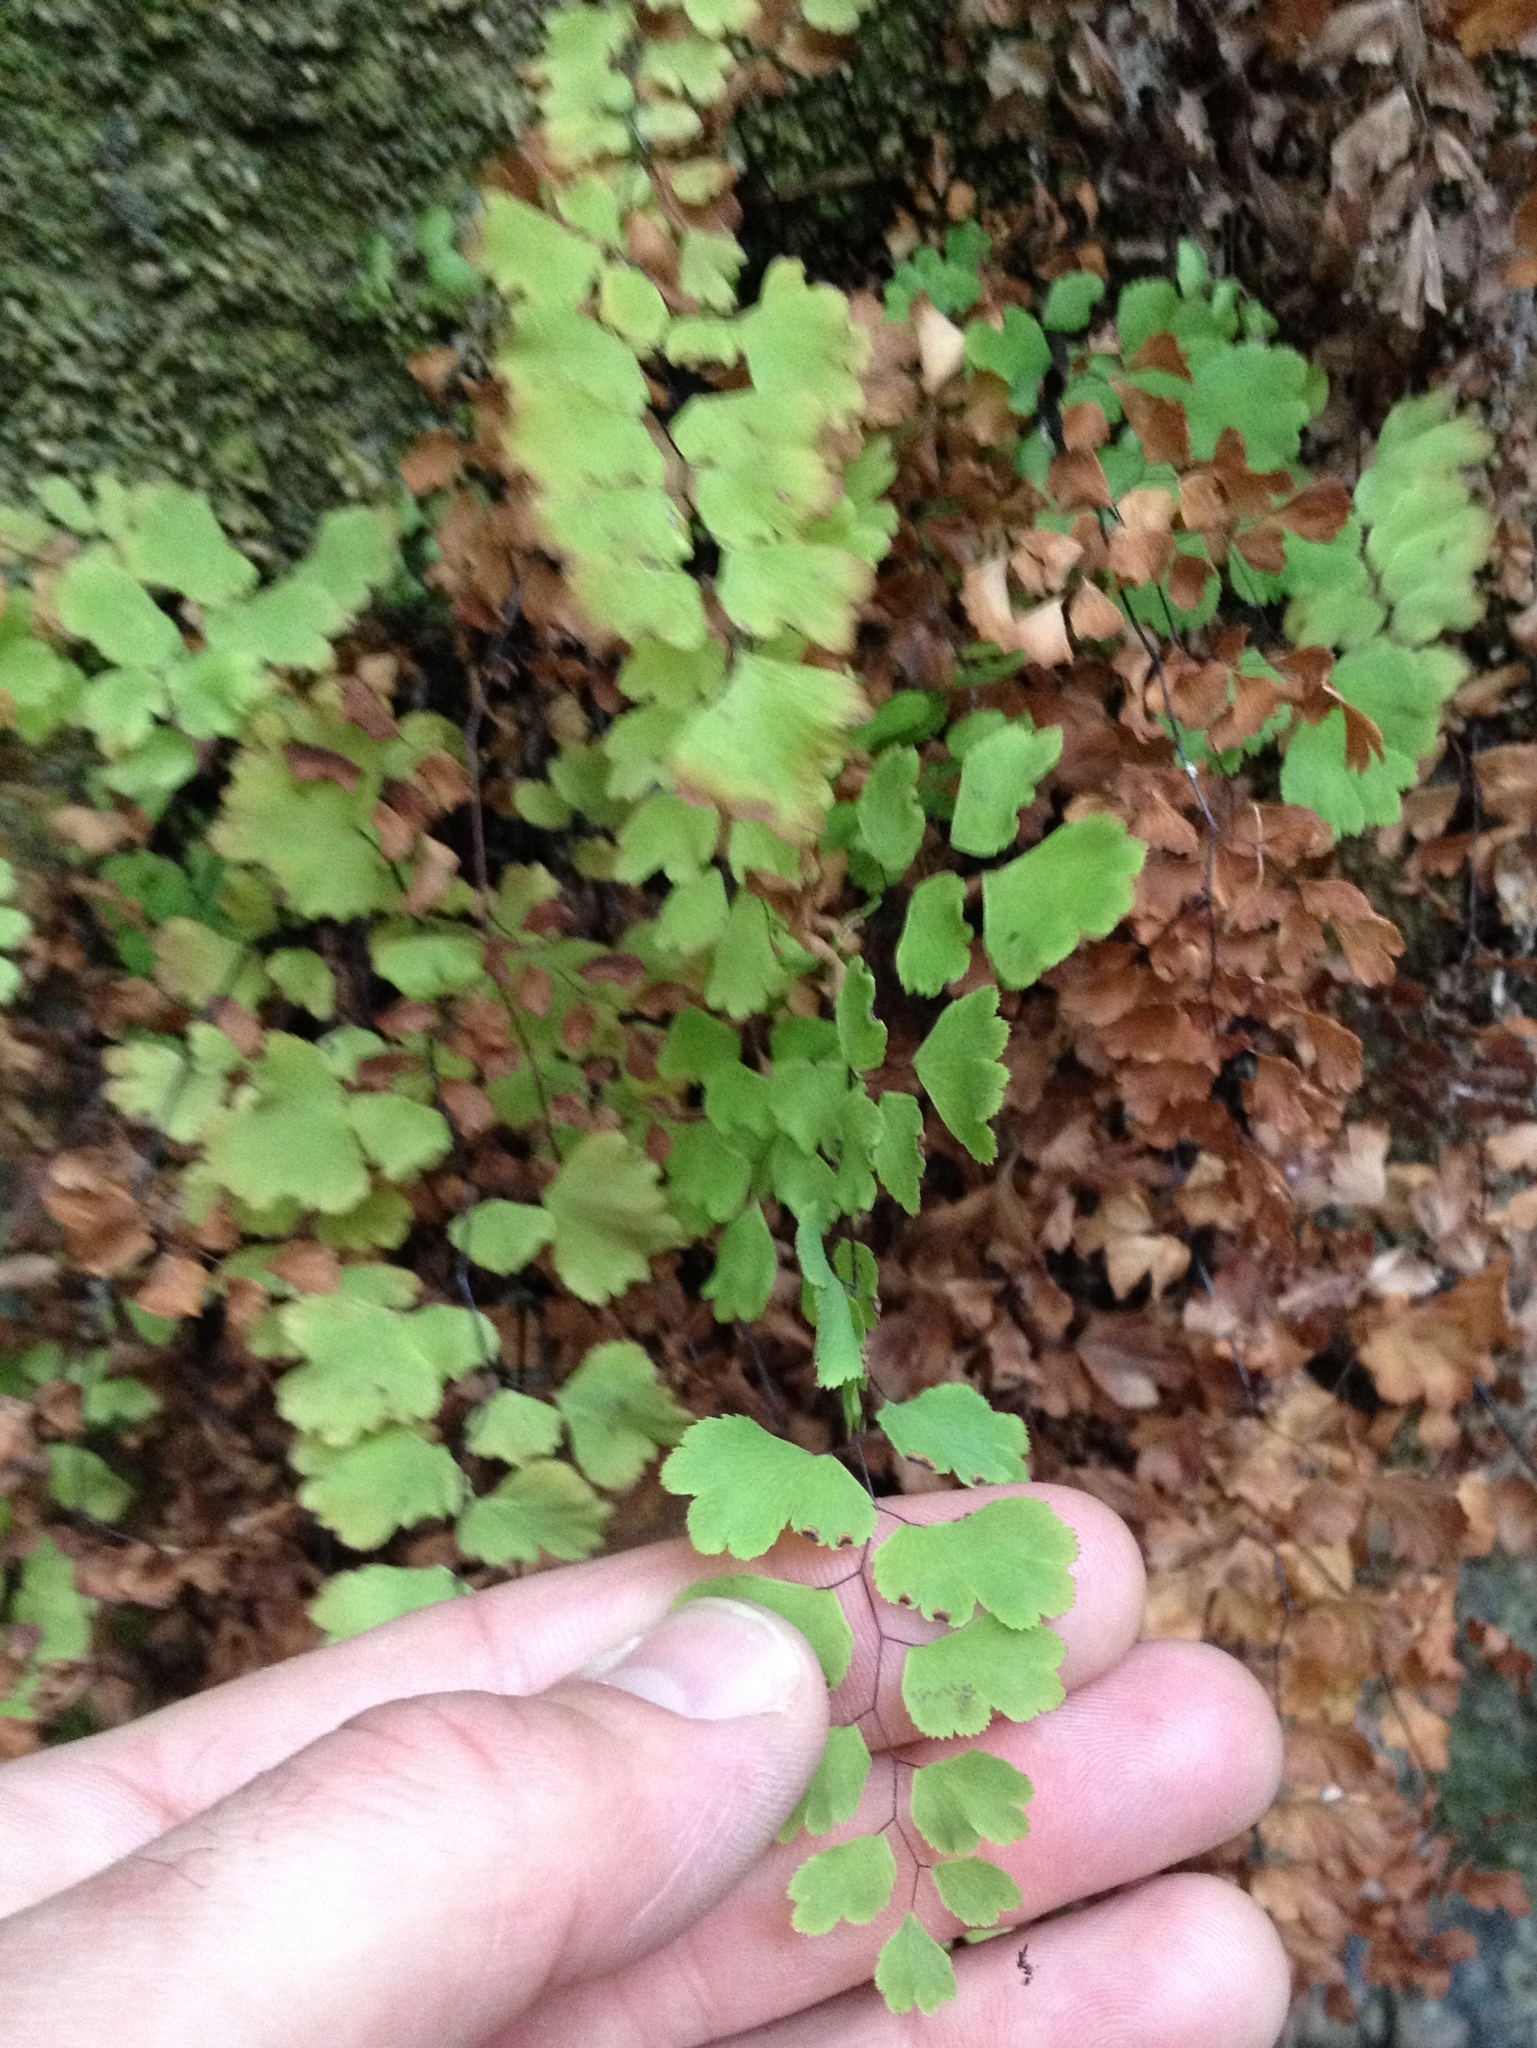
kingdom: Plantae
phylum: Tracheophyta
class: Polypodiopsida
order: Polypodiales
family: Pteridaceae
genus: Adiantum
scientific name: Adiantum capillus-veneris
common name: Maidenhair fern
